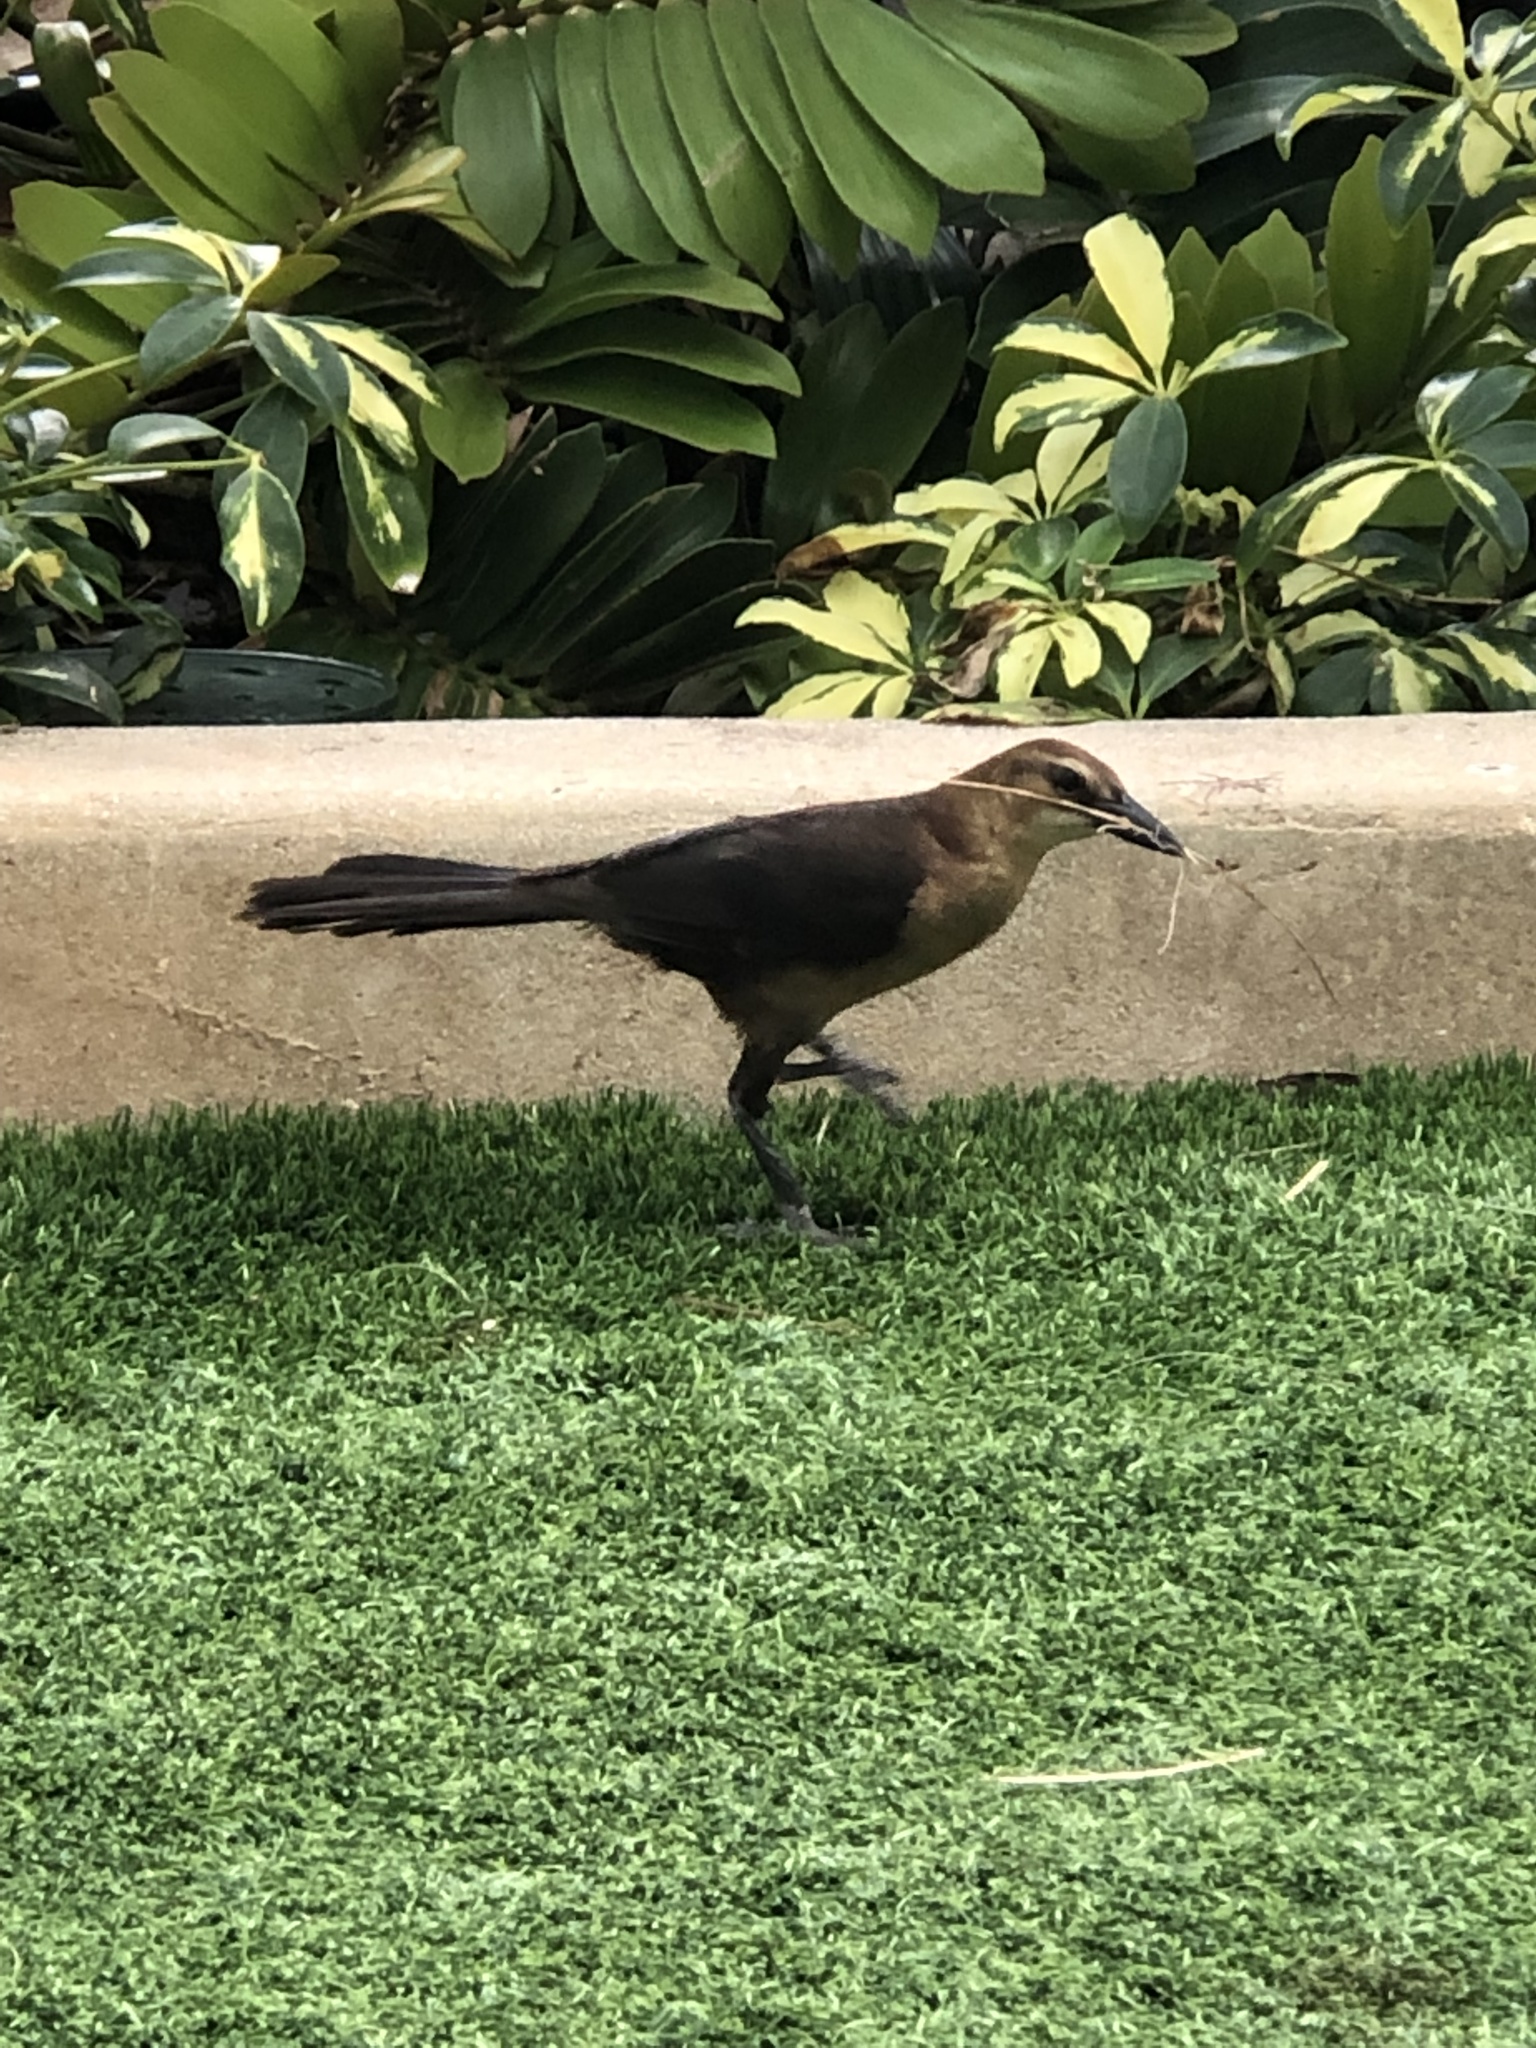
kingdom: Animalia
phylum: Chordata
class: Aves
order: Passeriformes
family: Icteridae
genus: Quiscalus
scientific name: Quiscalus major
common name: Boat-tailed grackle
